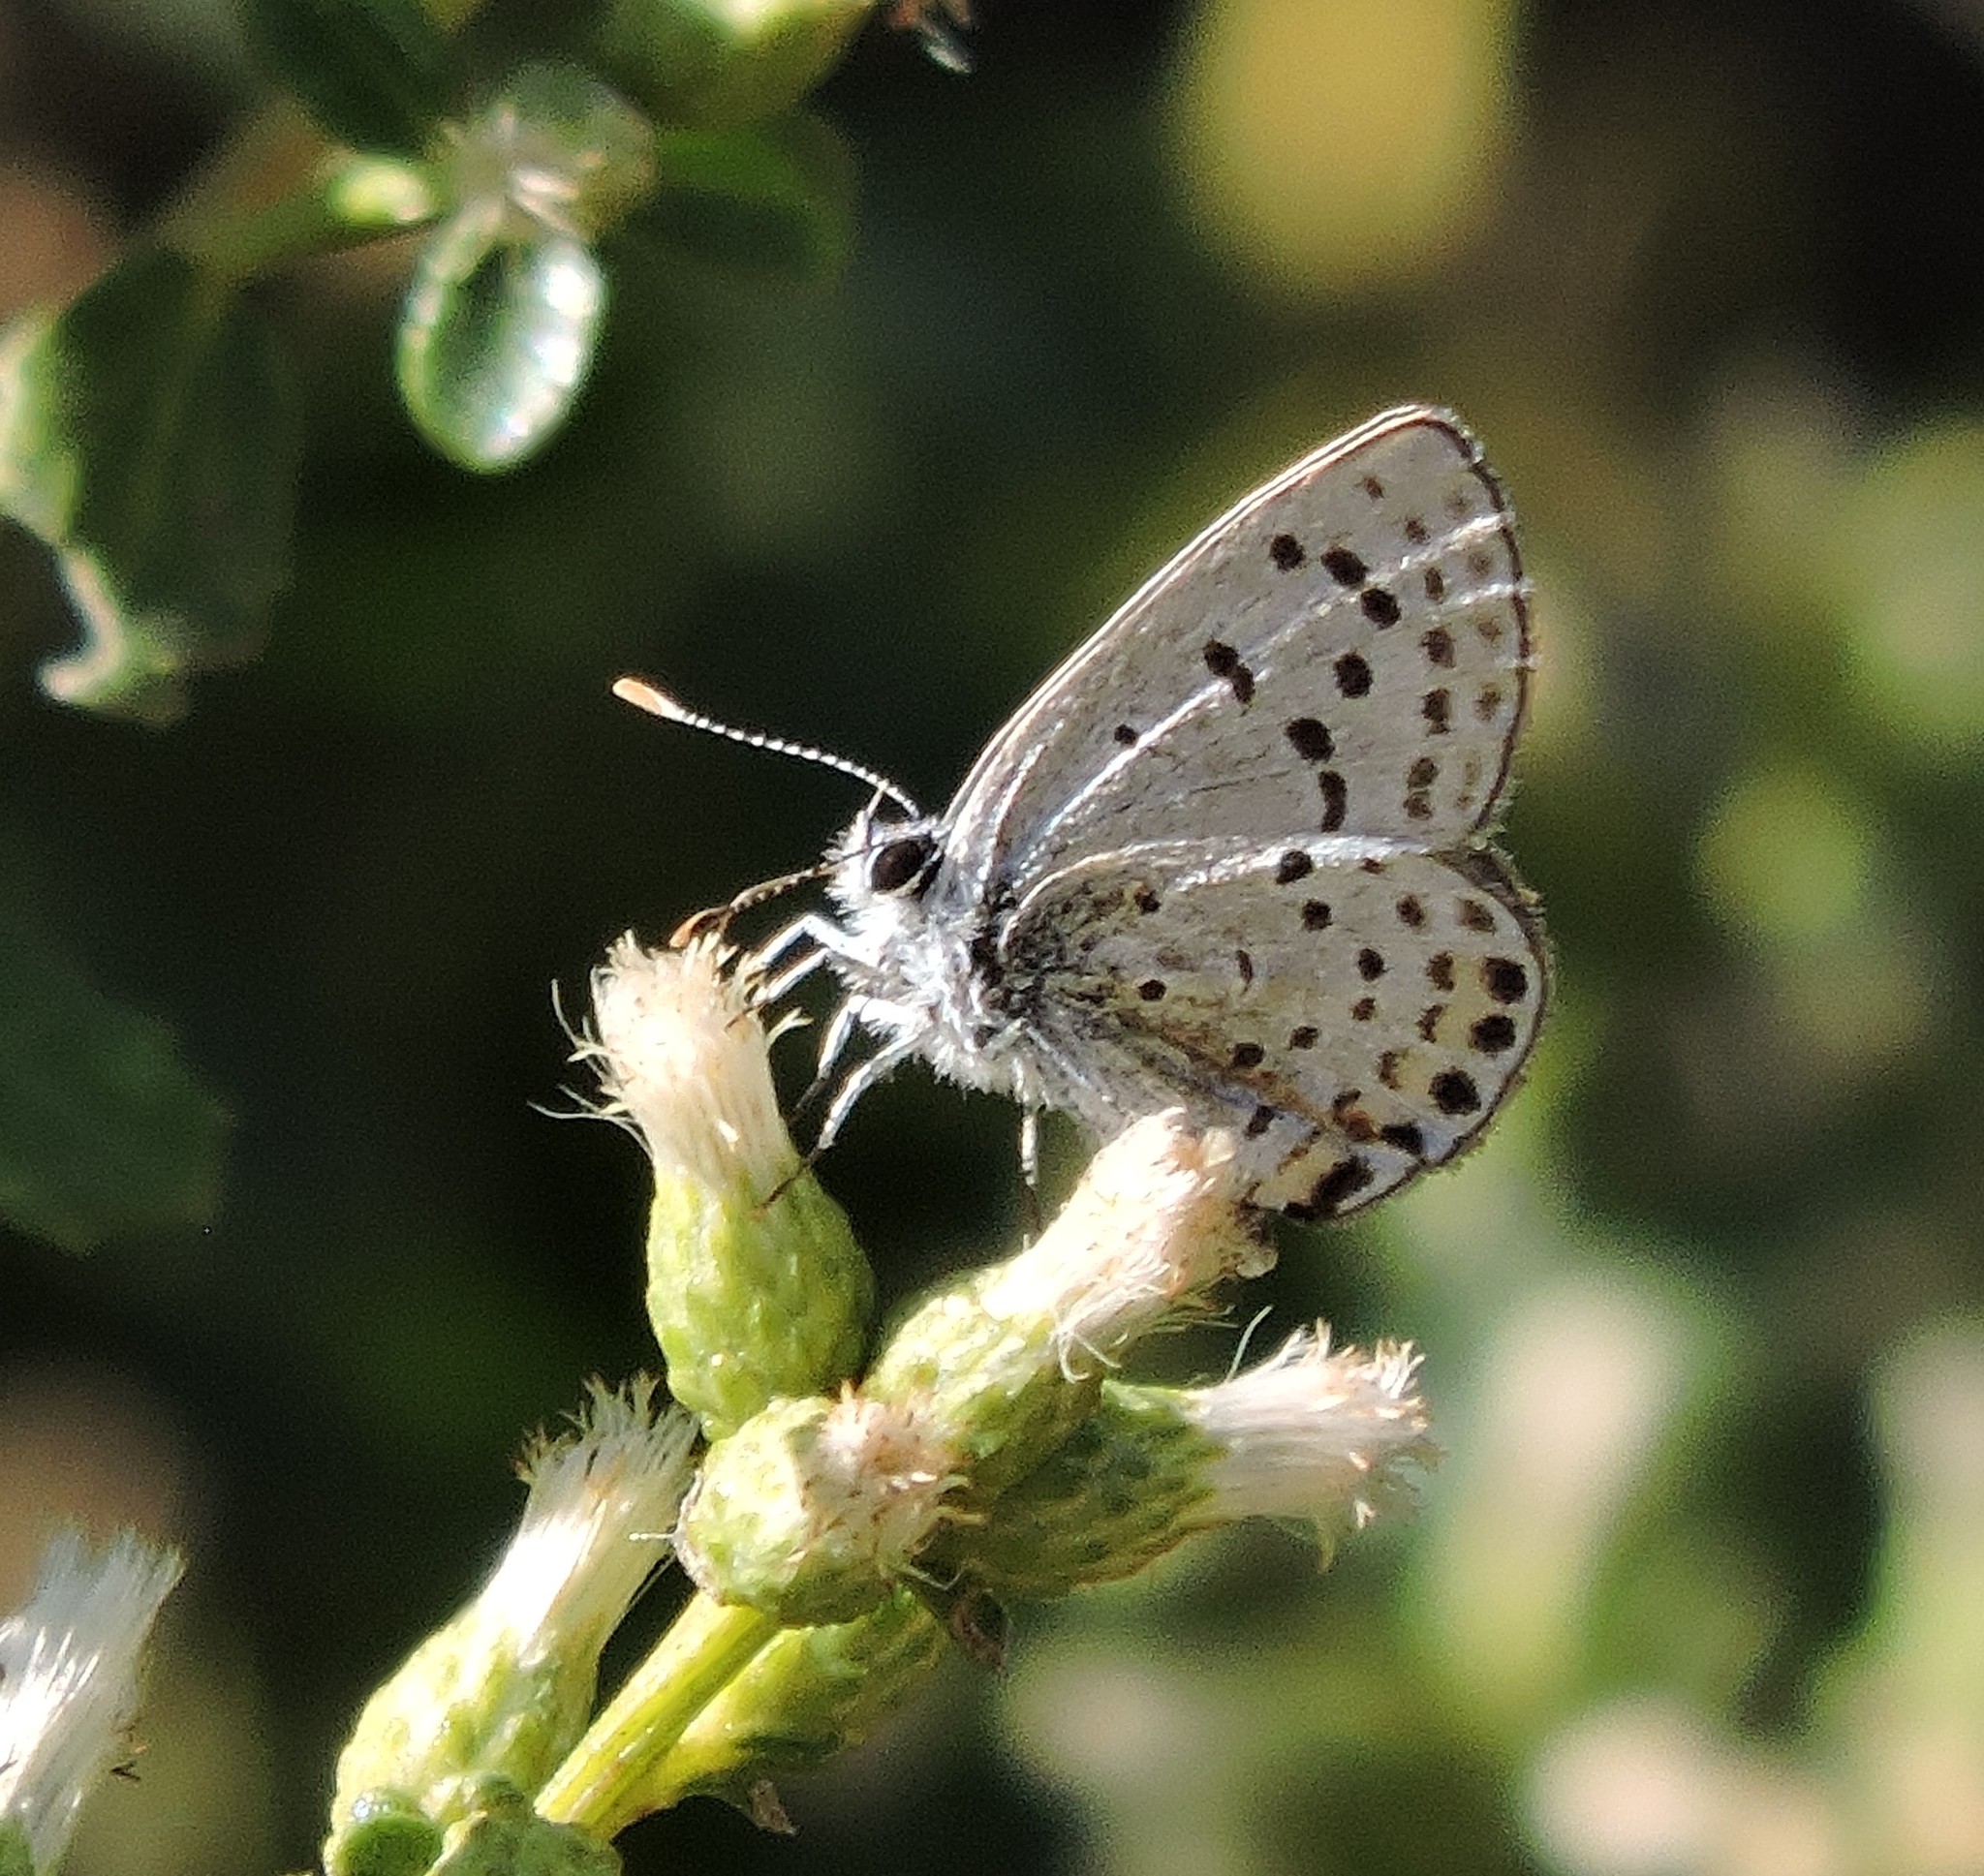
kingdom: Animalia
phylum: Arthropoda
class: Insecta
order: Lepidoptera
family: Lycaenidae
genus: Icaricia
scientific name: Icaricia acmon
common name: Acmon blue
